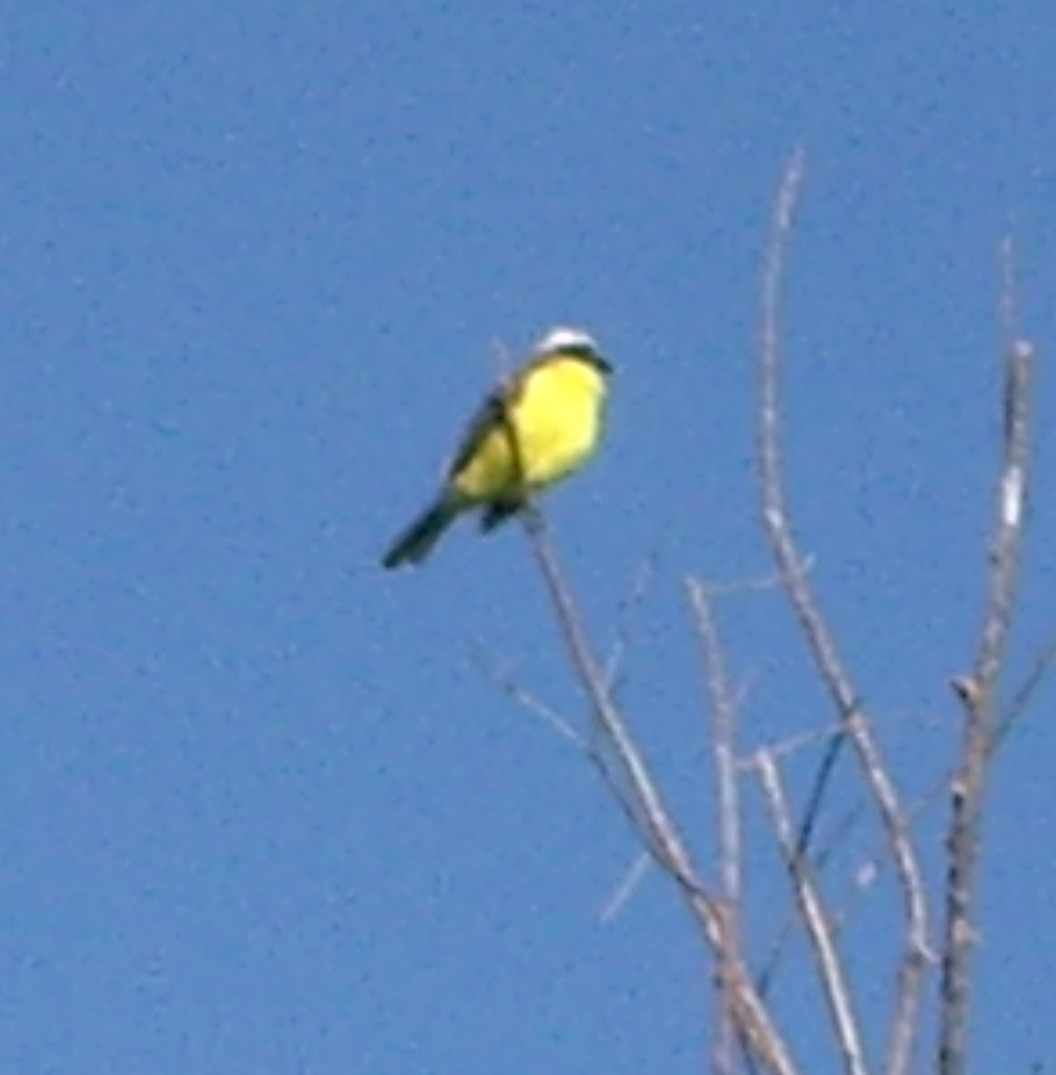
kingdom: Animalia
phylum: Chordata
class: Aves
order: Passeriformes
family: Tyrannidae
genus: Myiozetetes
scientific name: Myiozetetes similis
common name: Social flycatcher
